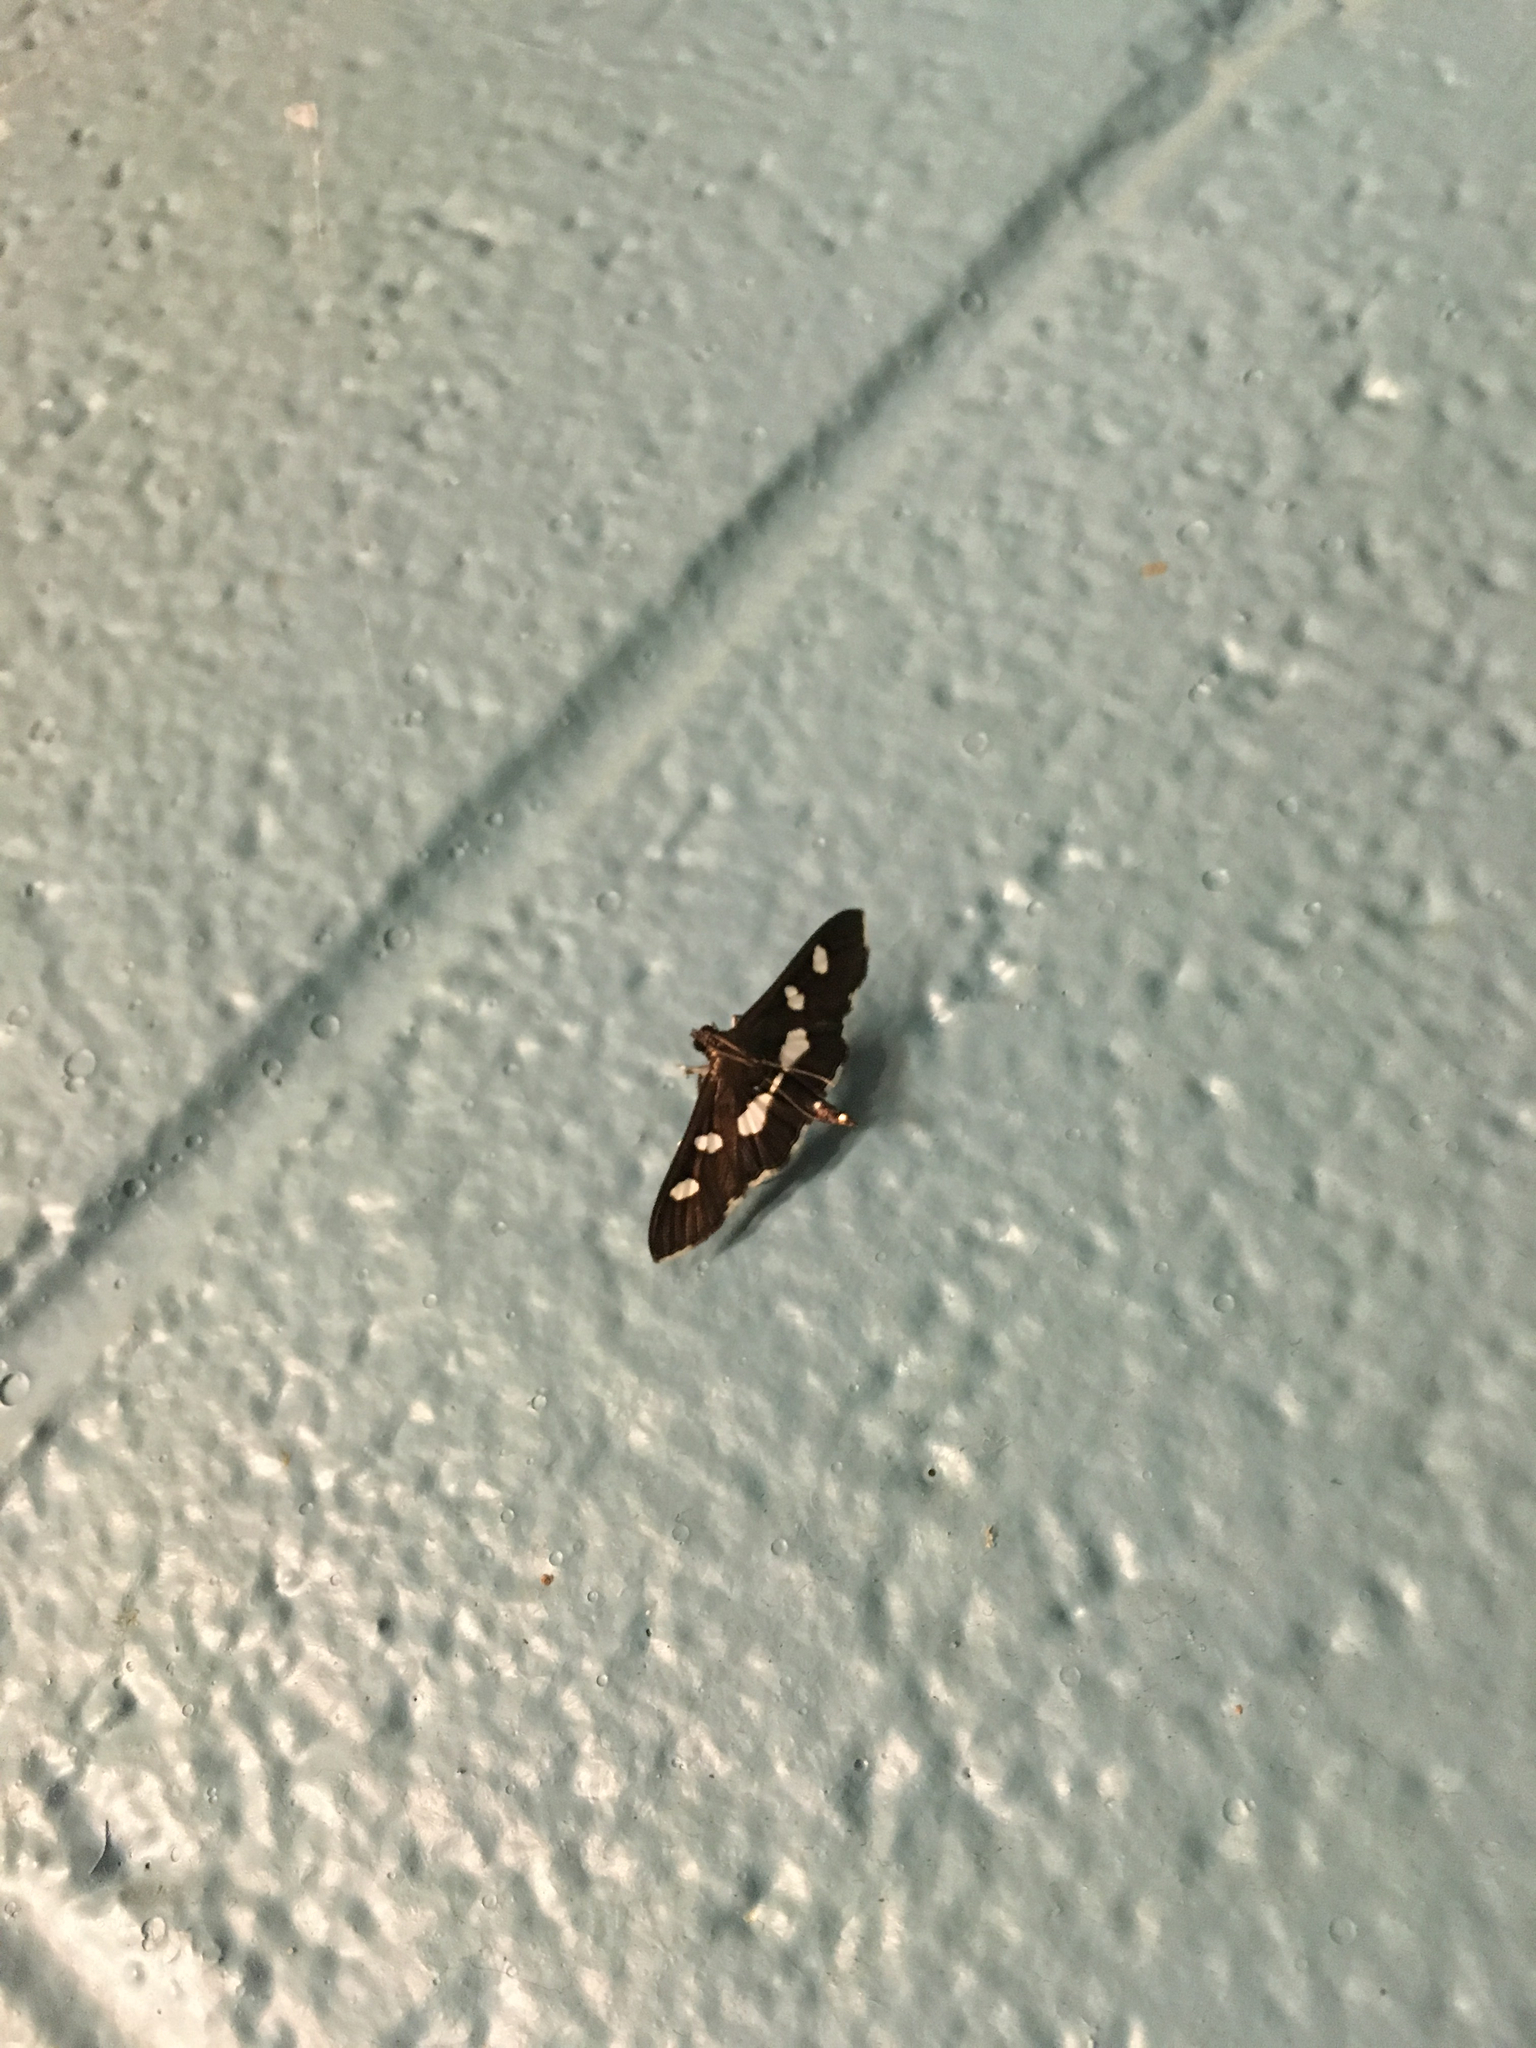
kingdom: Animalia
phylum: Arthropoda
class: Insecta
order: Lepidoptera
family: Crambidae
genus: Desmia
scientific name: Desmia
